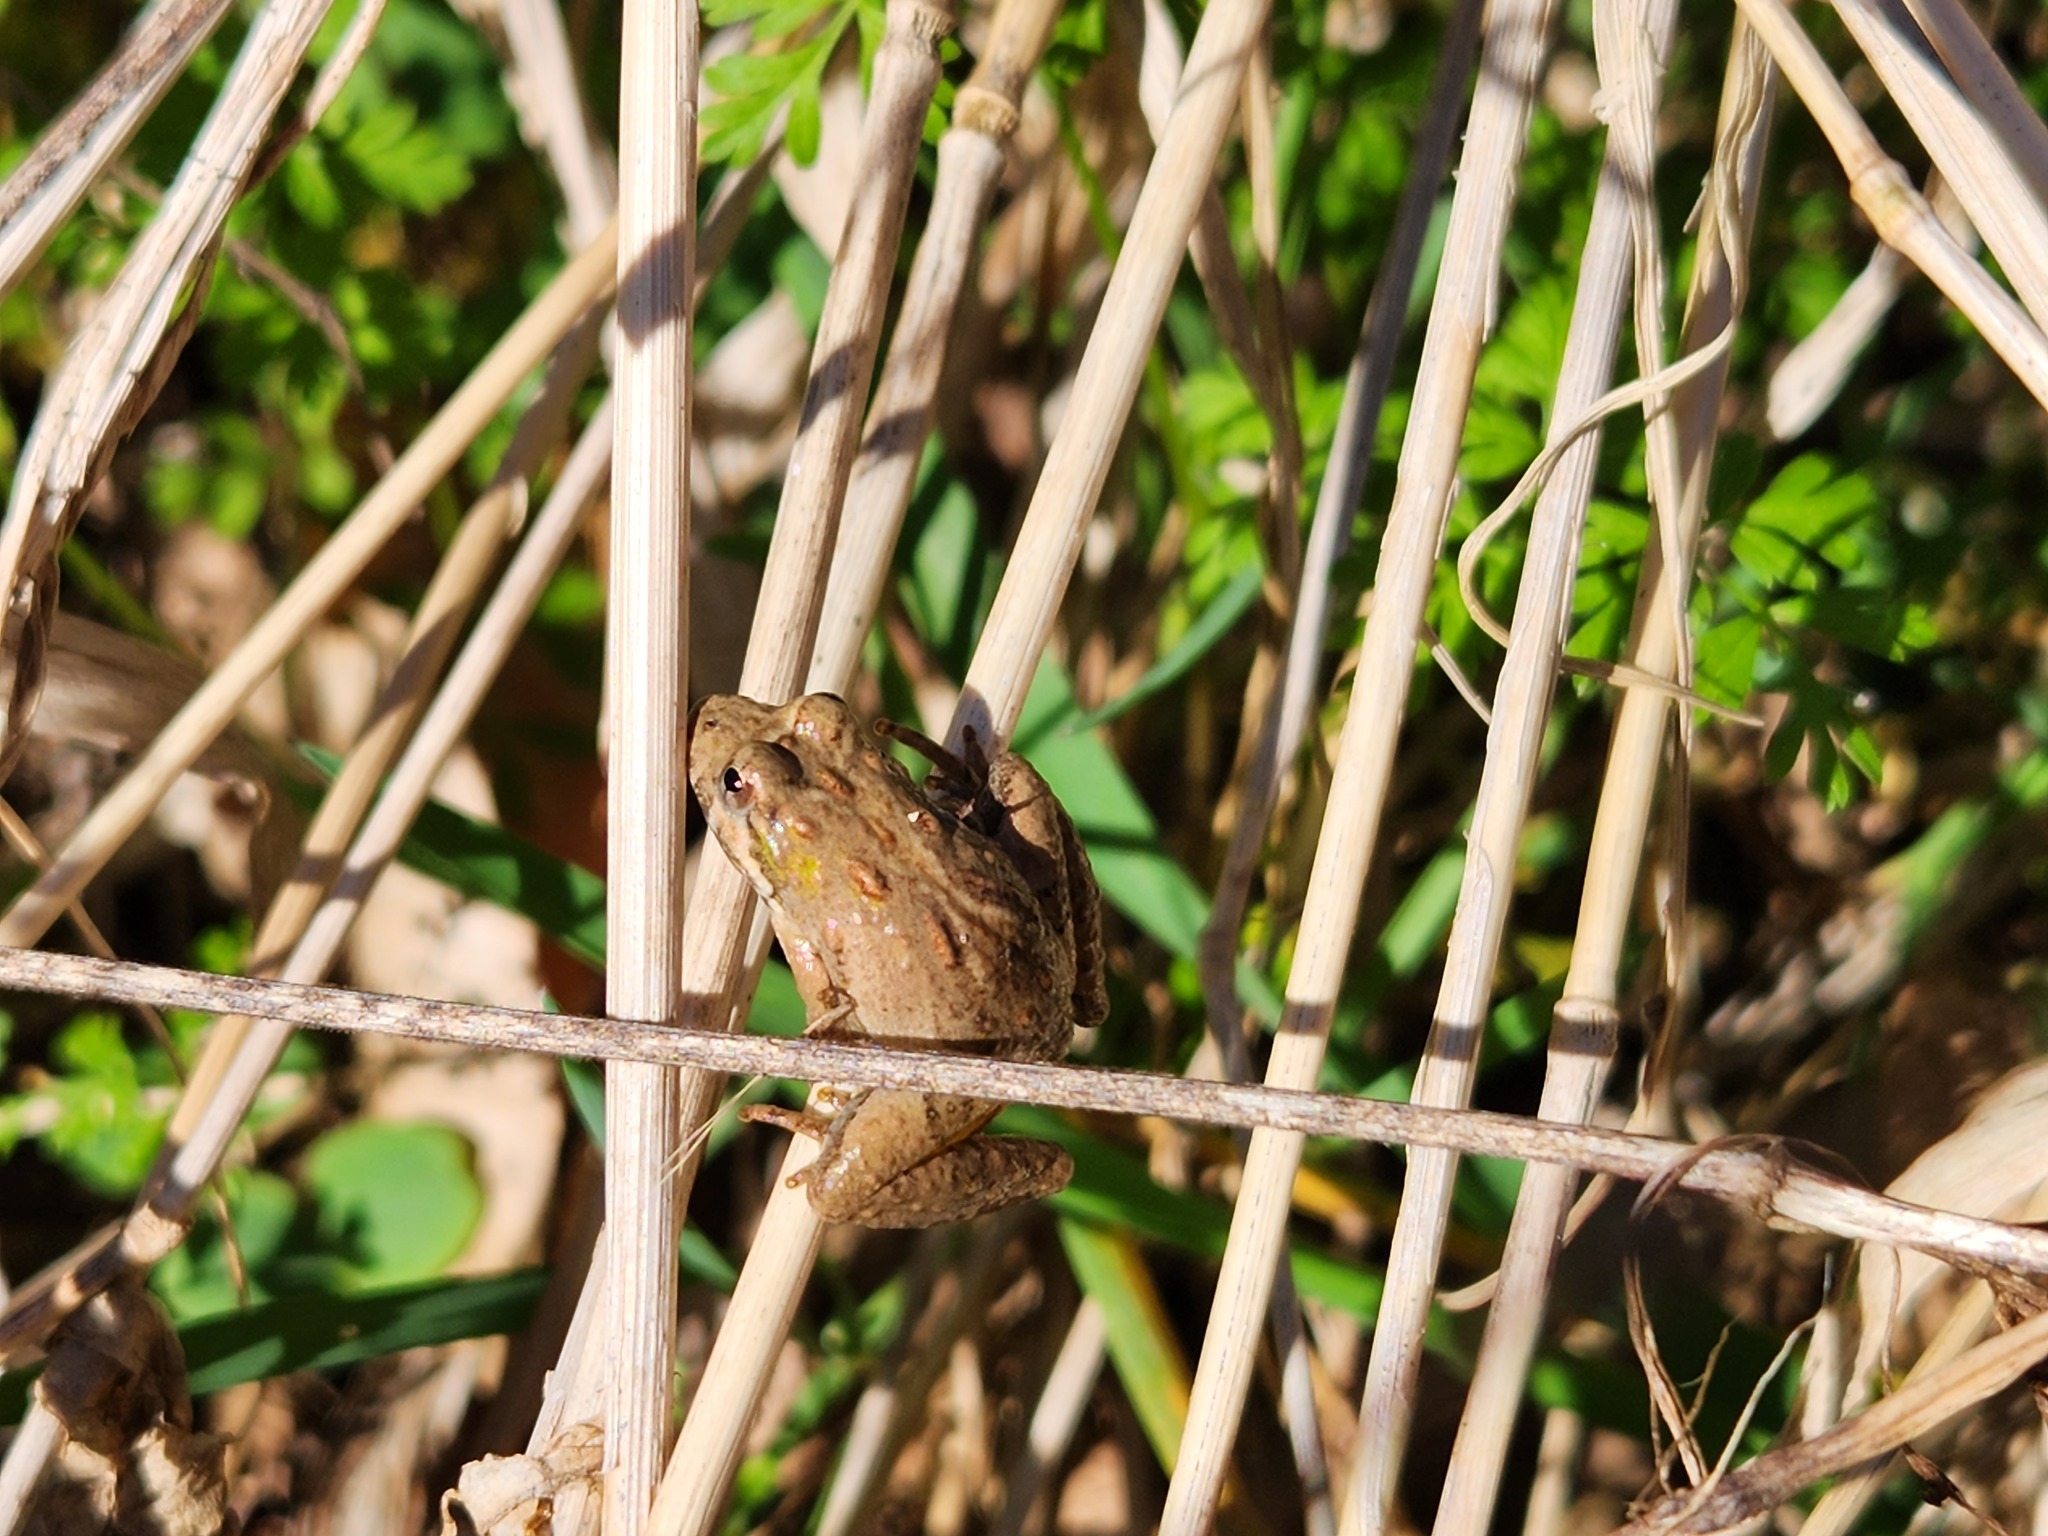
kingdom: Animalia
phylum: Chordata
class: Amphibia
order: Anura
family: Hylidae
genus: Acris
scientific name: Acris crepitans
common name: Northern cricket frog
